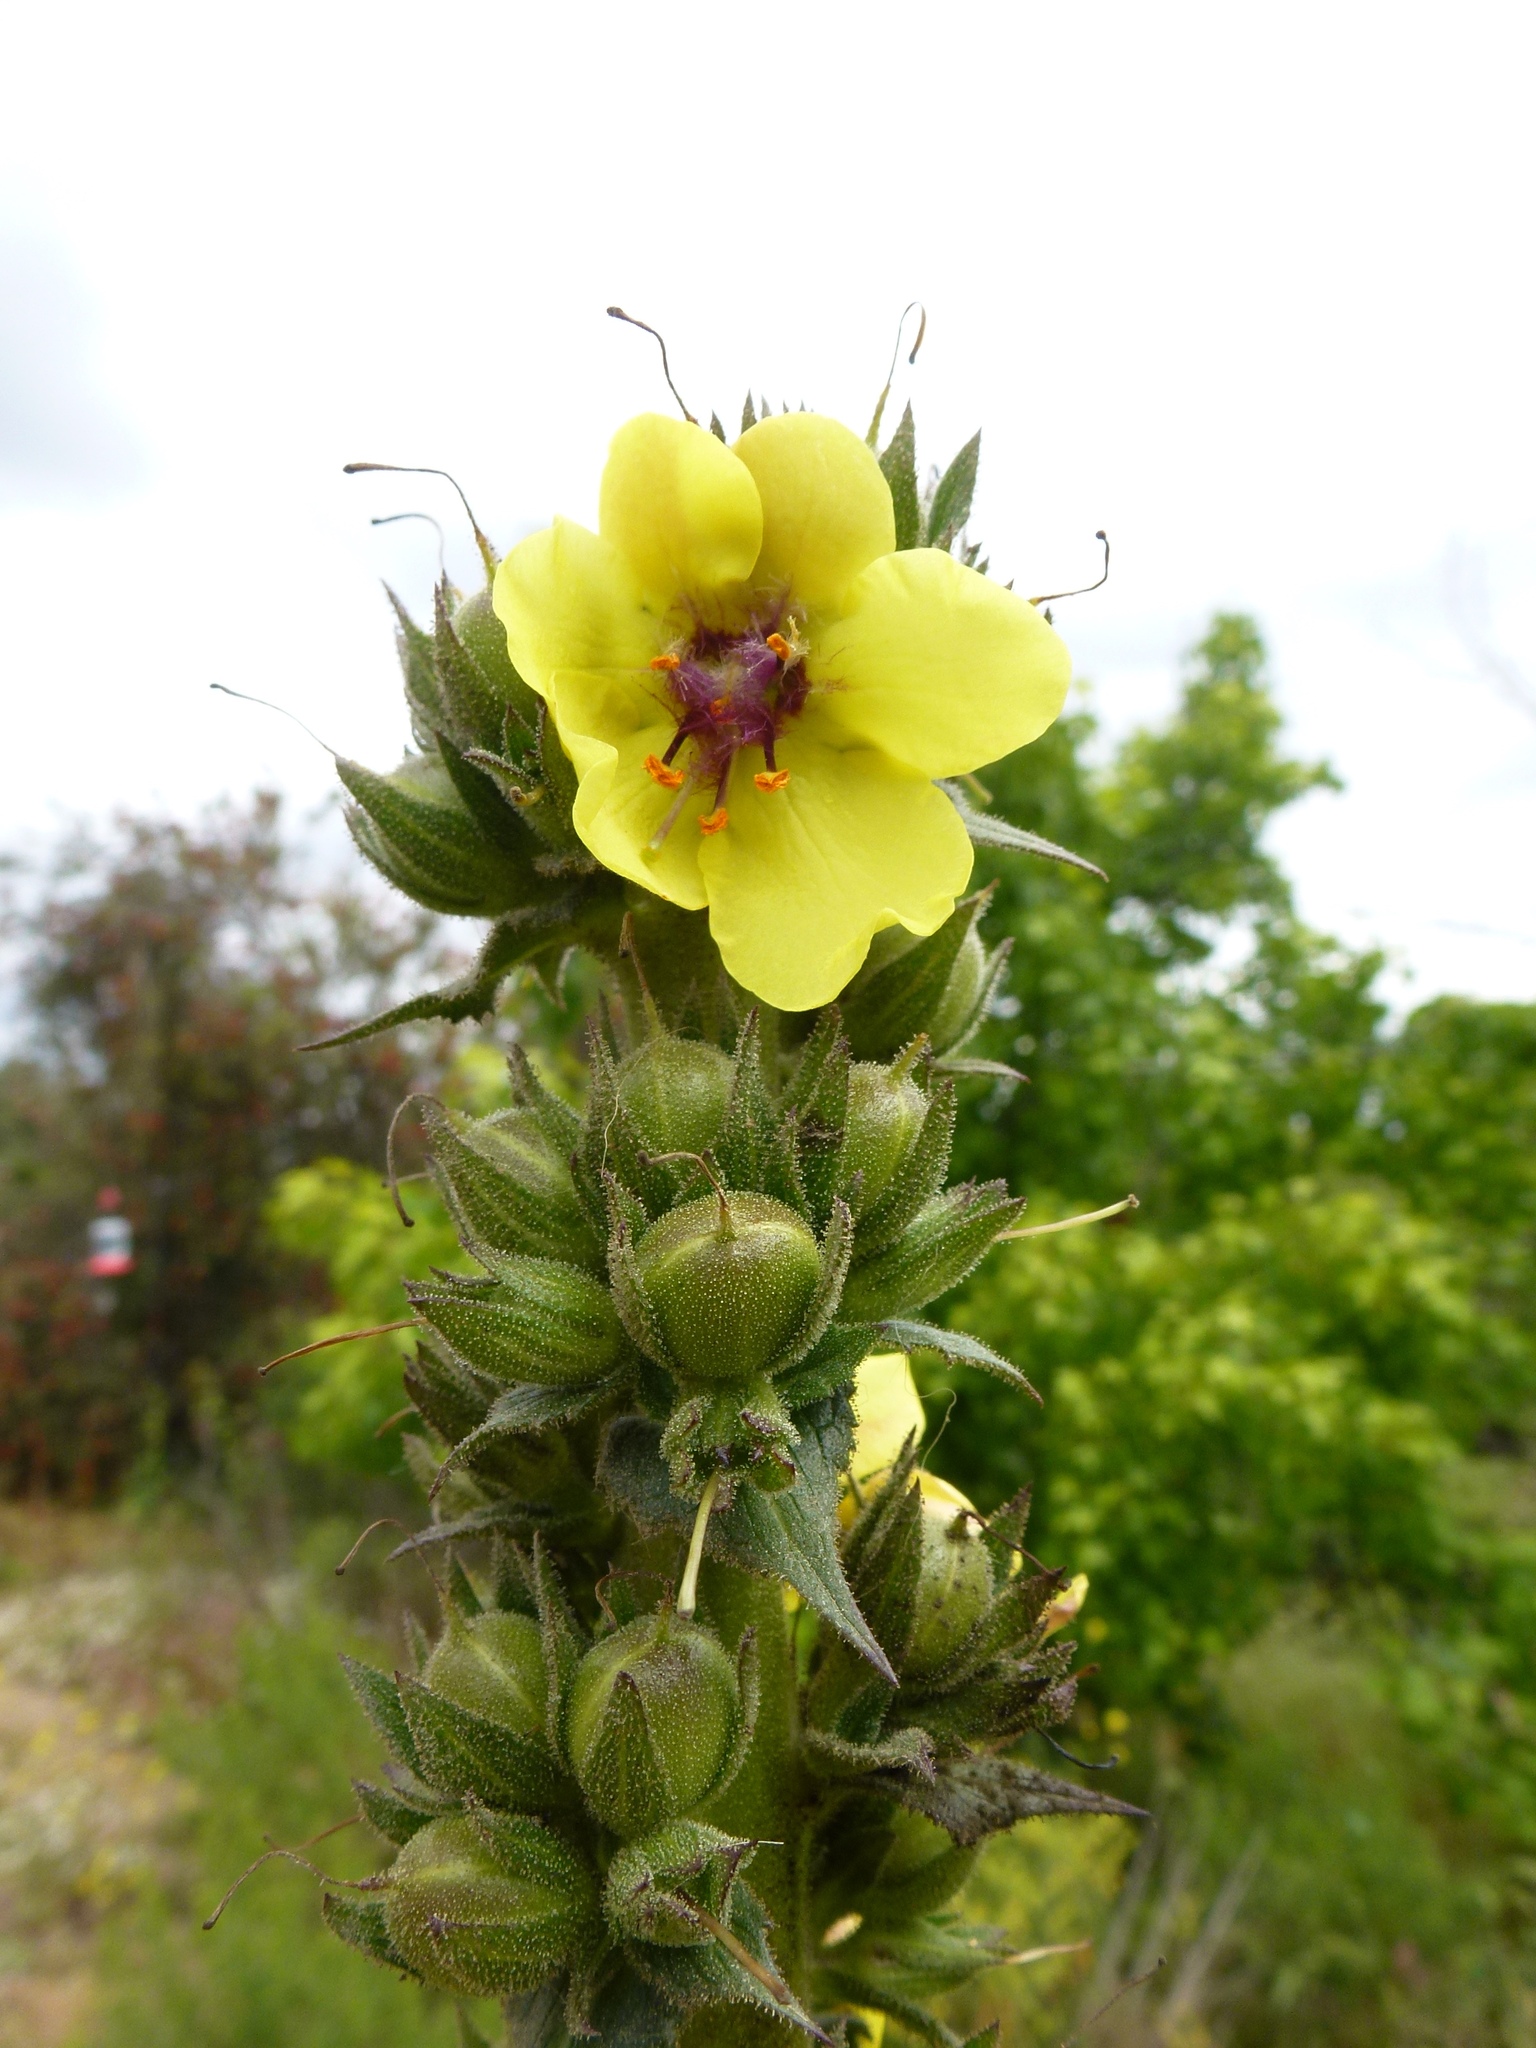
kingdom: Plantae
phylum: Tracheophyta
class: Magnoliopsida
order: Lamiales
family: Scrophulariaceae
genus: Verbascum
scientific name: Verbascum virgatum
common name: Twiggy mullein
